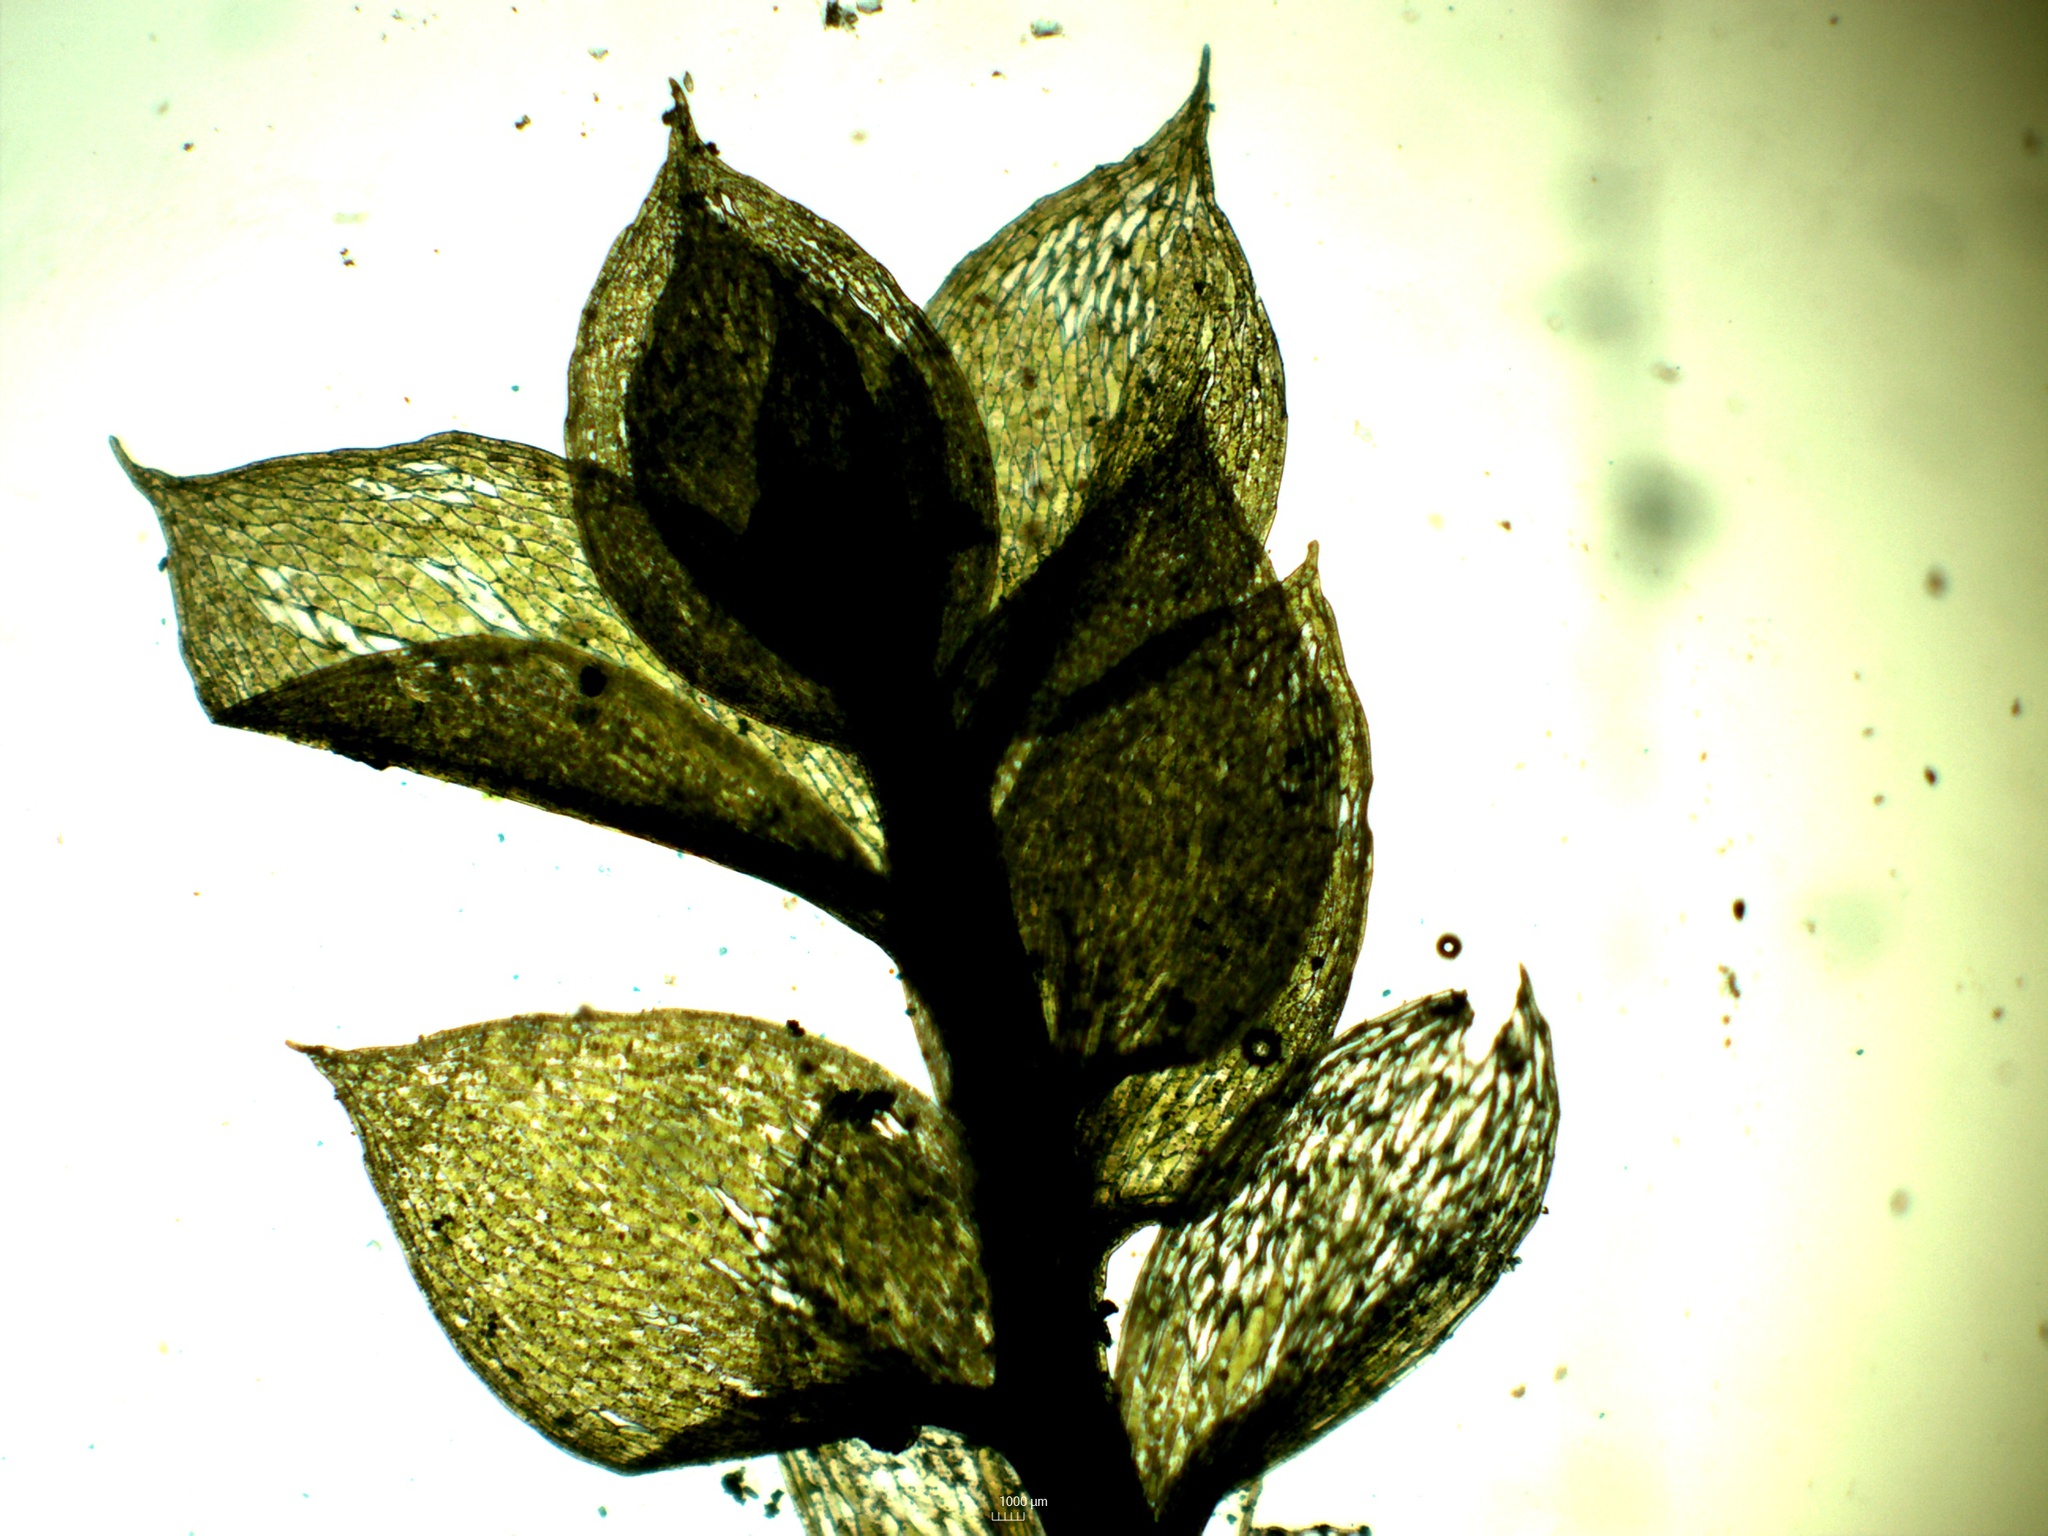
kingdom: Plantae
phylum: Bryophyta
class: Bryopsida
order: Bryales
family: Mniaceae
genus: Epipterygium
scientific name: Epipterygium tozeri
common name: Tozer's thread-moss
